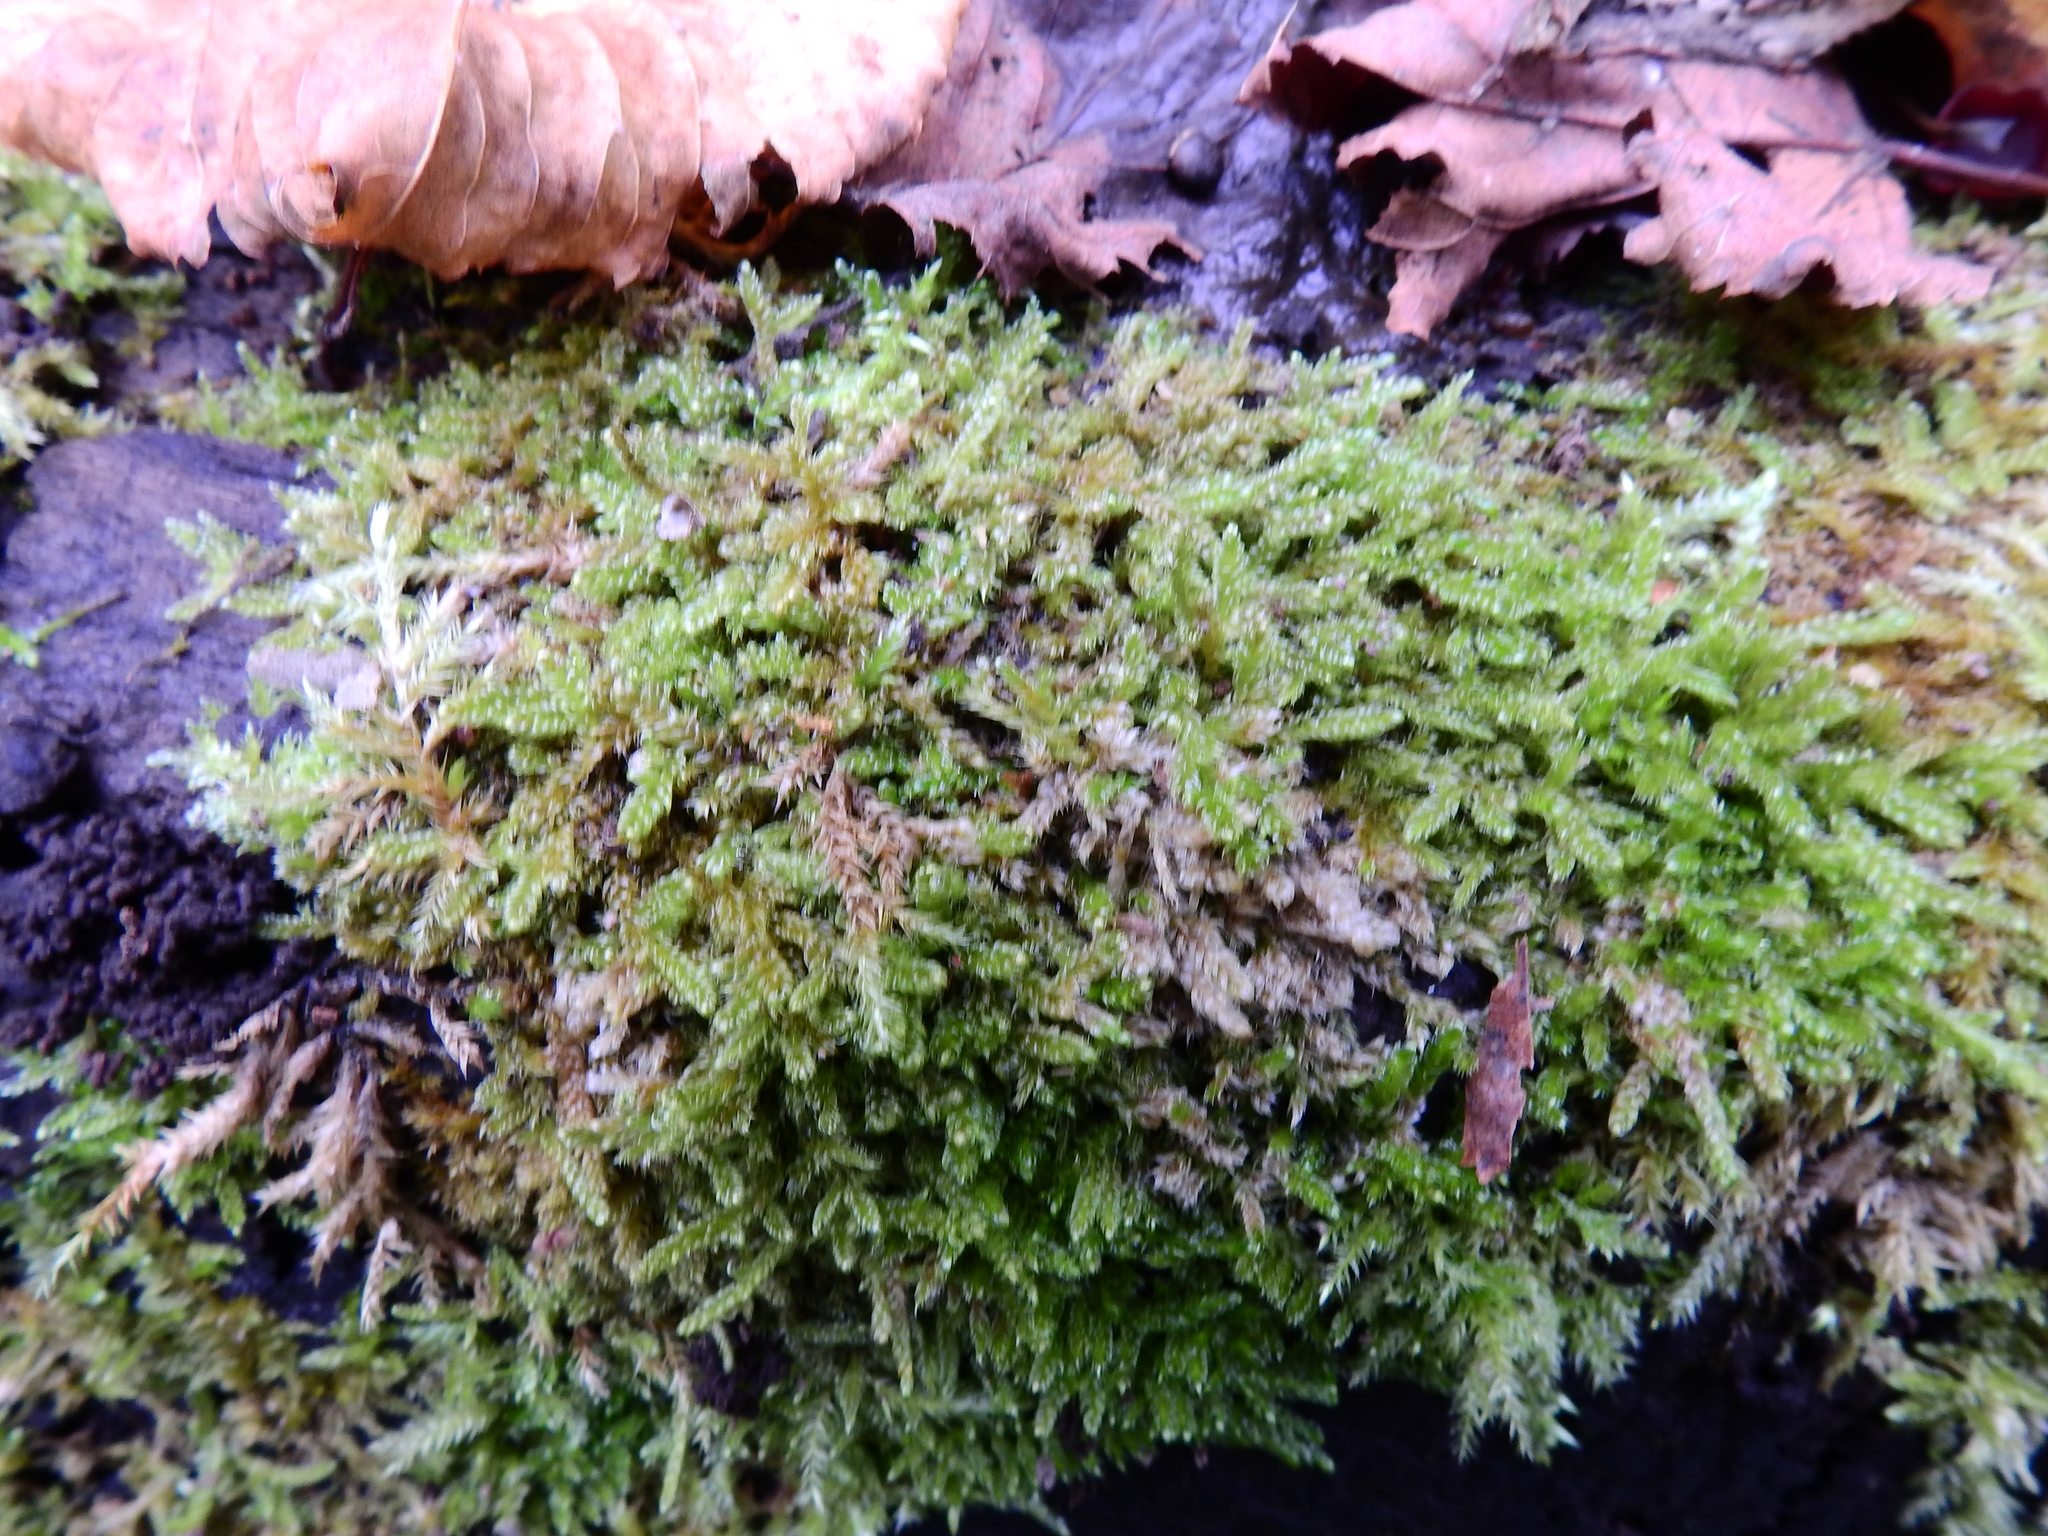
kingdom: Plantae
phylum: Bryophyta
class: Bryopsida
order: Hypnales
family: Hypnaceae
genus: Hypnum
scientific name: Hypnum cupressiforme
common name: Cypress-leaved plait-moss
